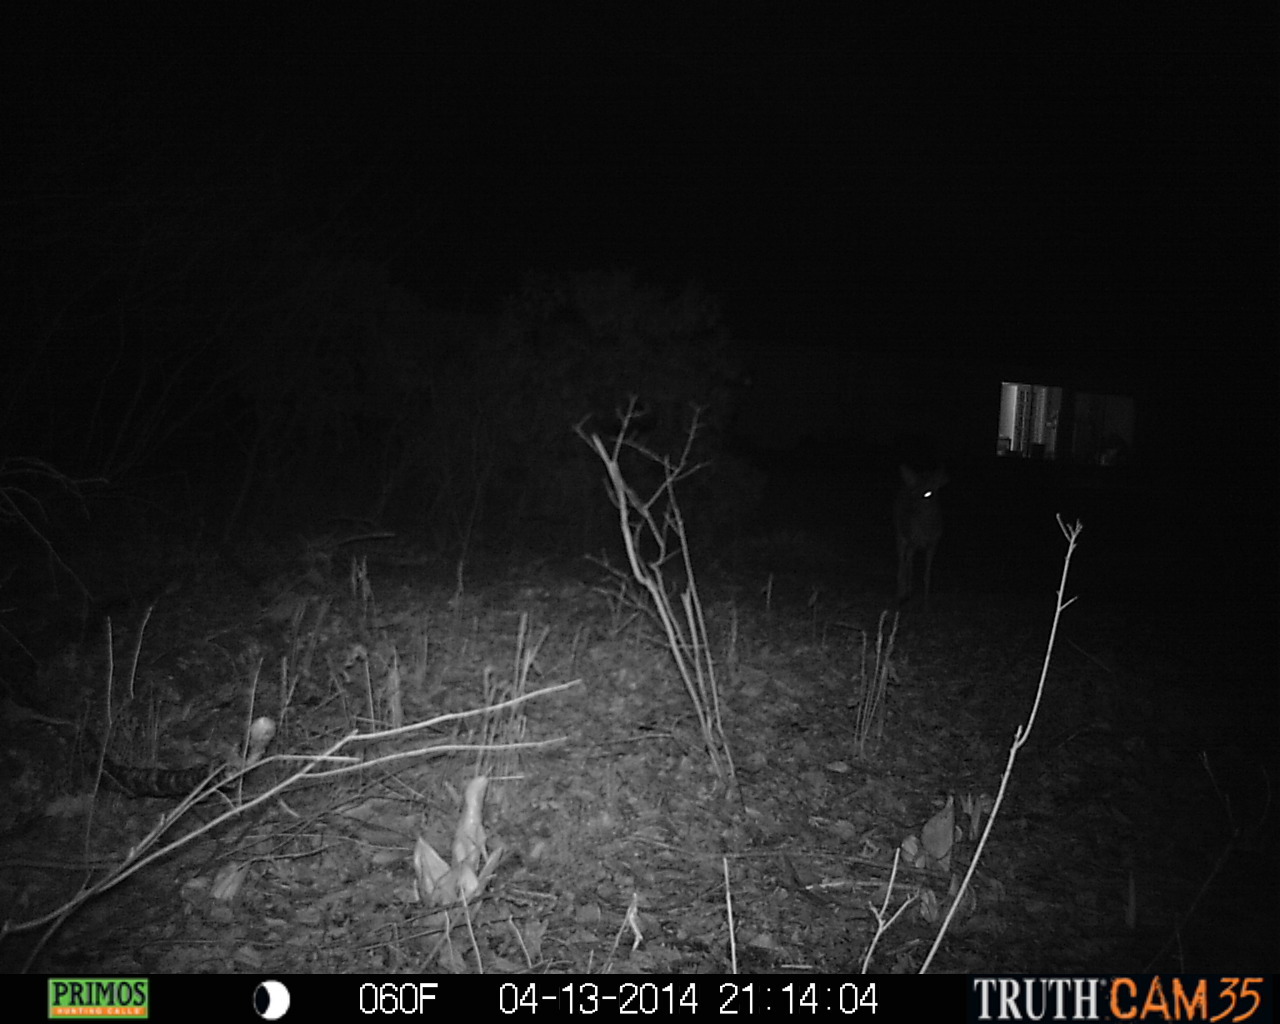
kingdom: Animalia
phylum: Chordata
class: Mammalia
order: Artiodactyla
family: Cervidae
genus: Odocoileus
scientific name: Odocoileus virginianus
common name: White-tailed deer
